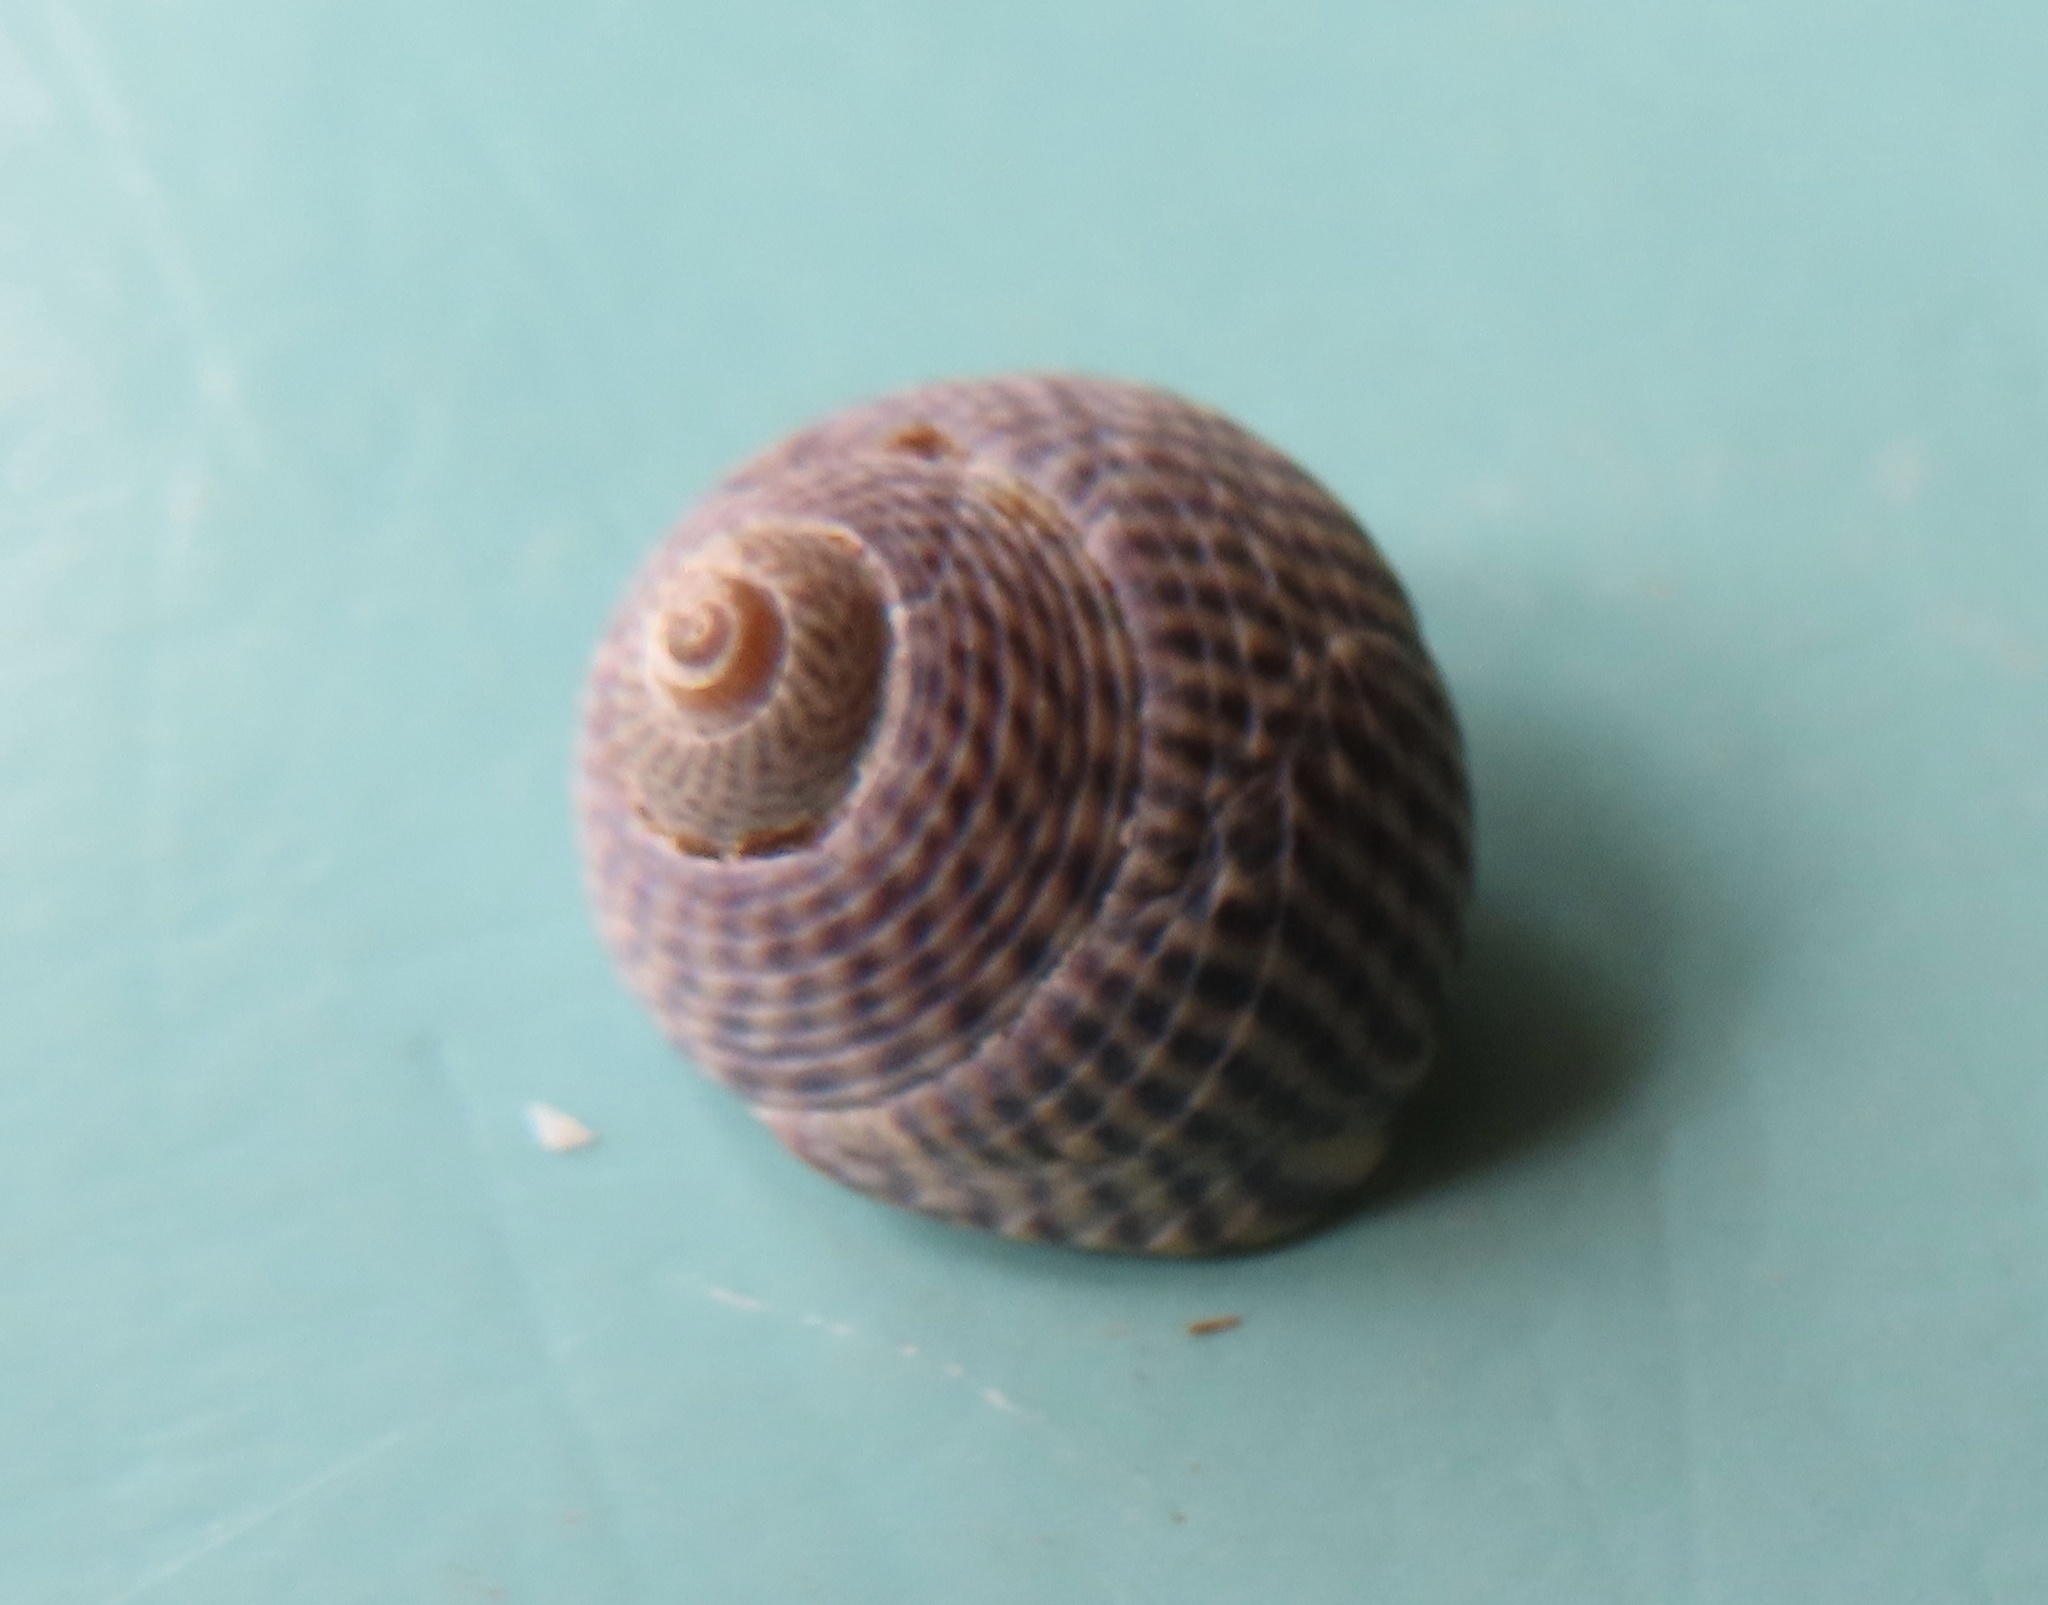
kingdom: Animalia
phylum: Mollusca
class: Gastropoda
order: Trochida
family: Trochidae
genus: Steromphala
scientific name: Steromphala cineraria
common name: Grey top shell
